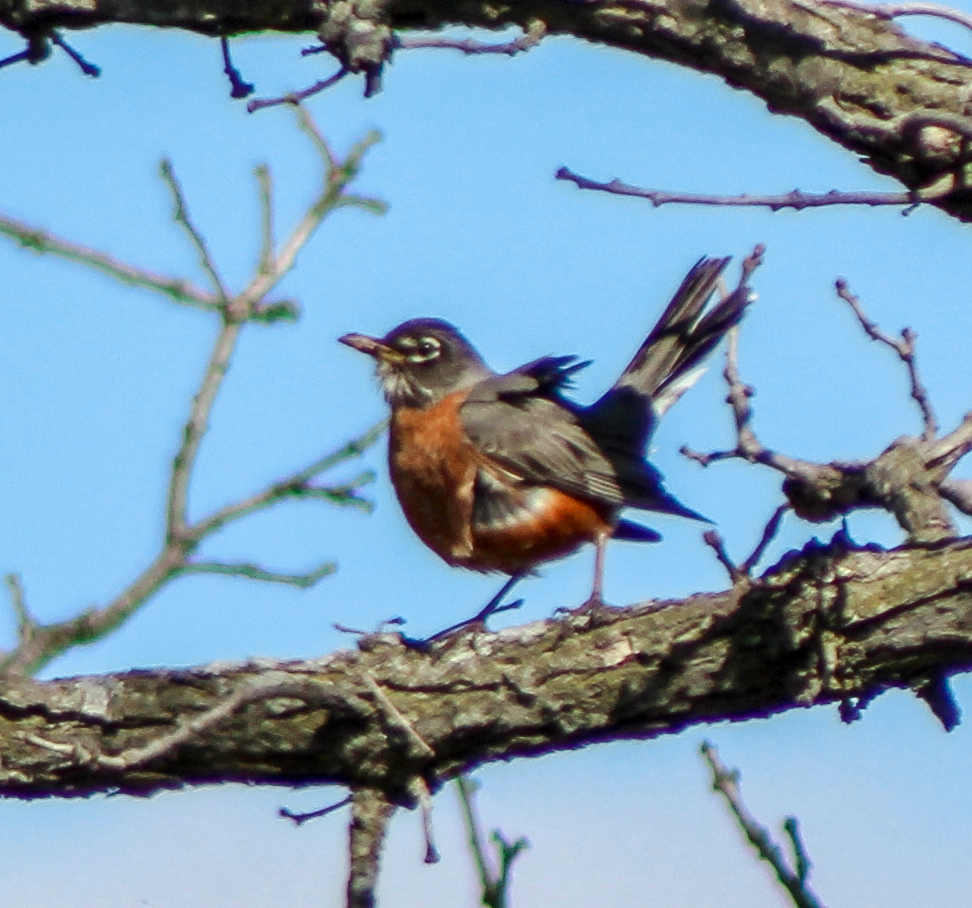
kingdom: Animalia
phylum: Chordata
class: Aves
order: Passeriformes
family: Turdidae
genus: Turdus
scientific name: Turdus migratorius
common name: American robin
